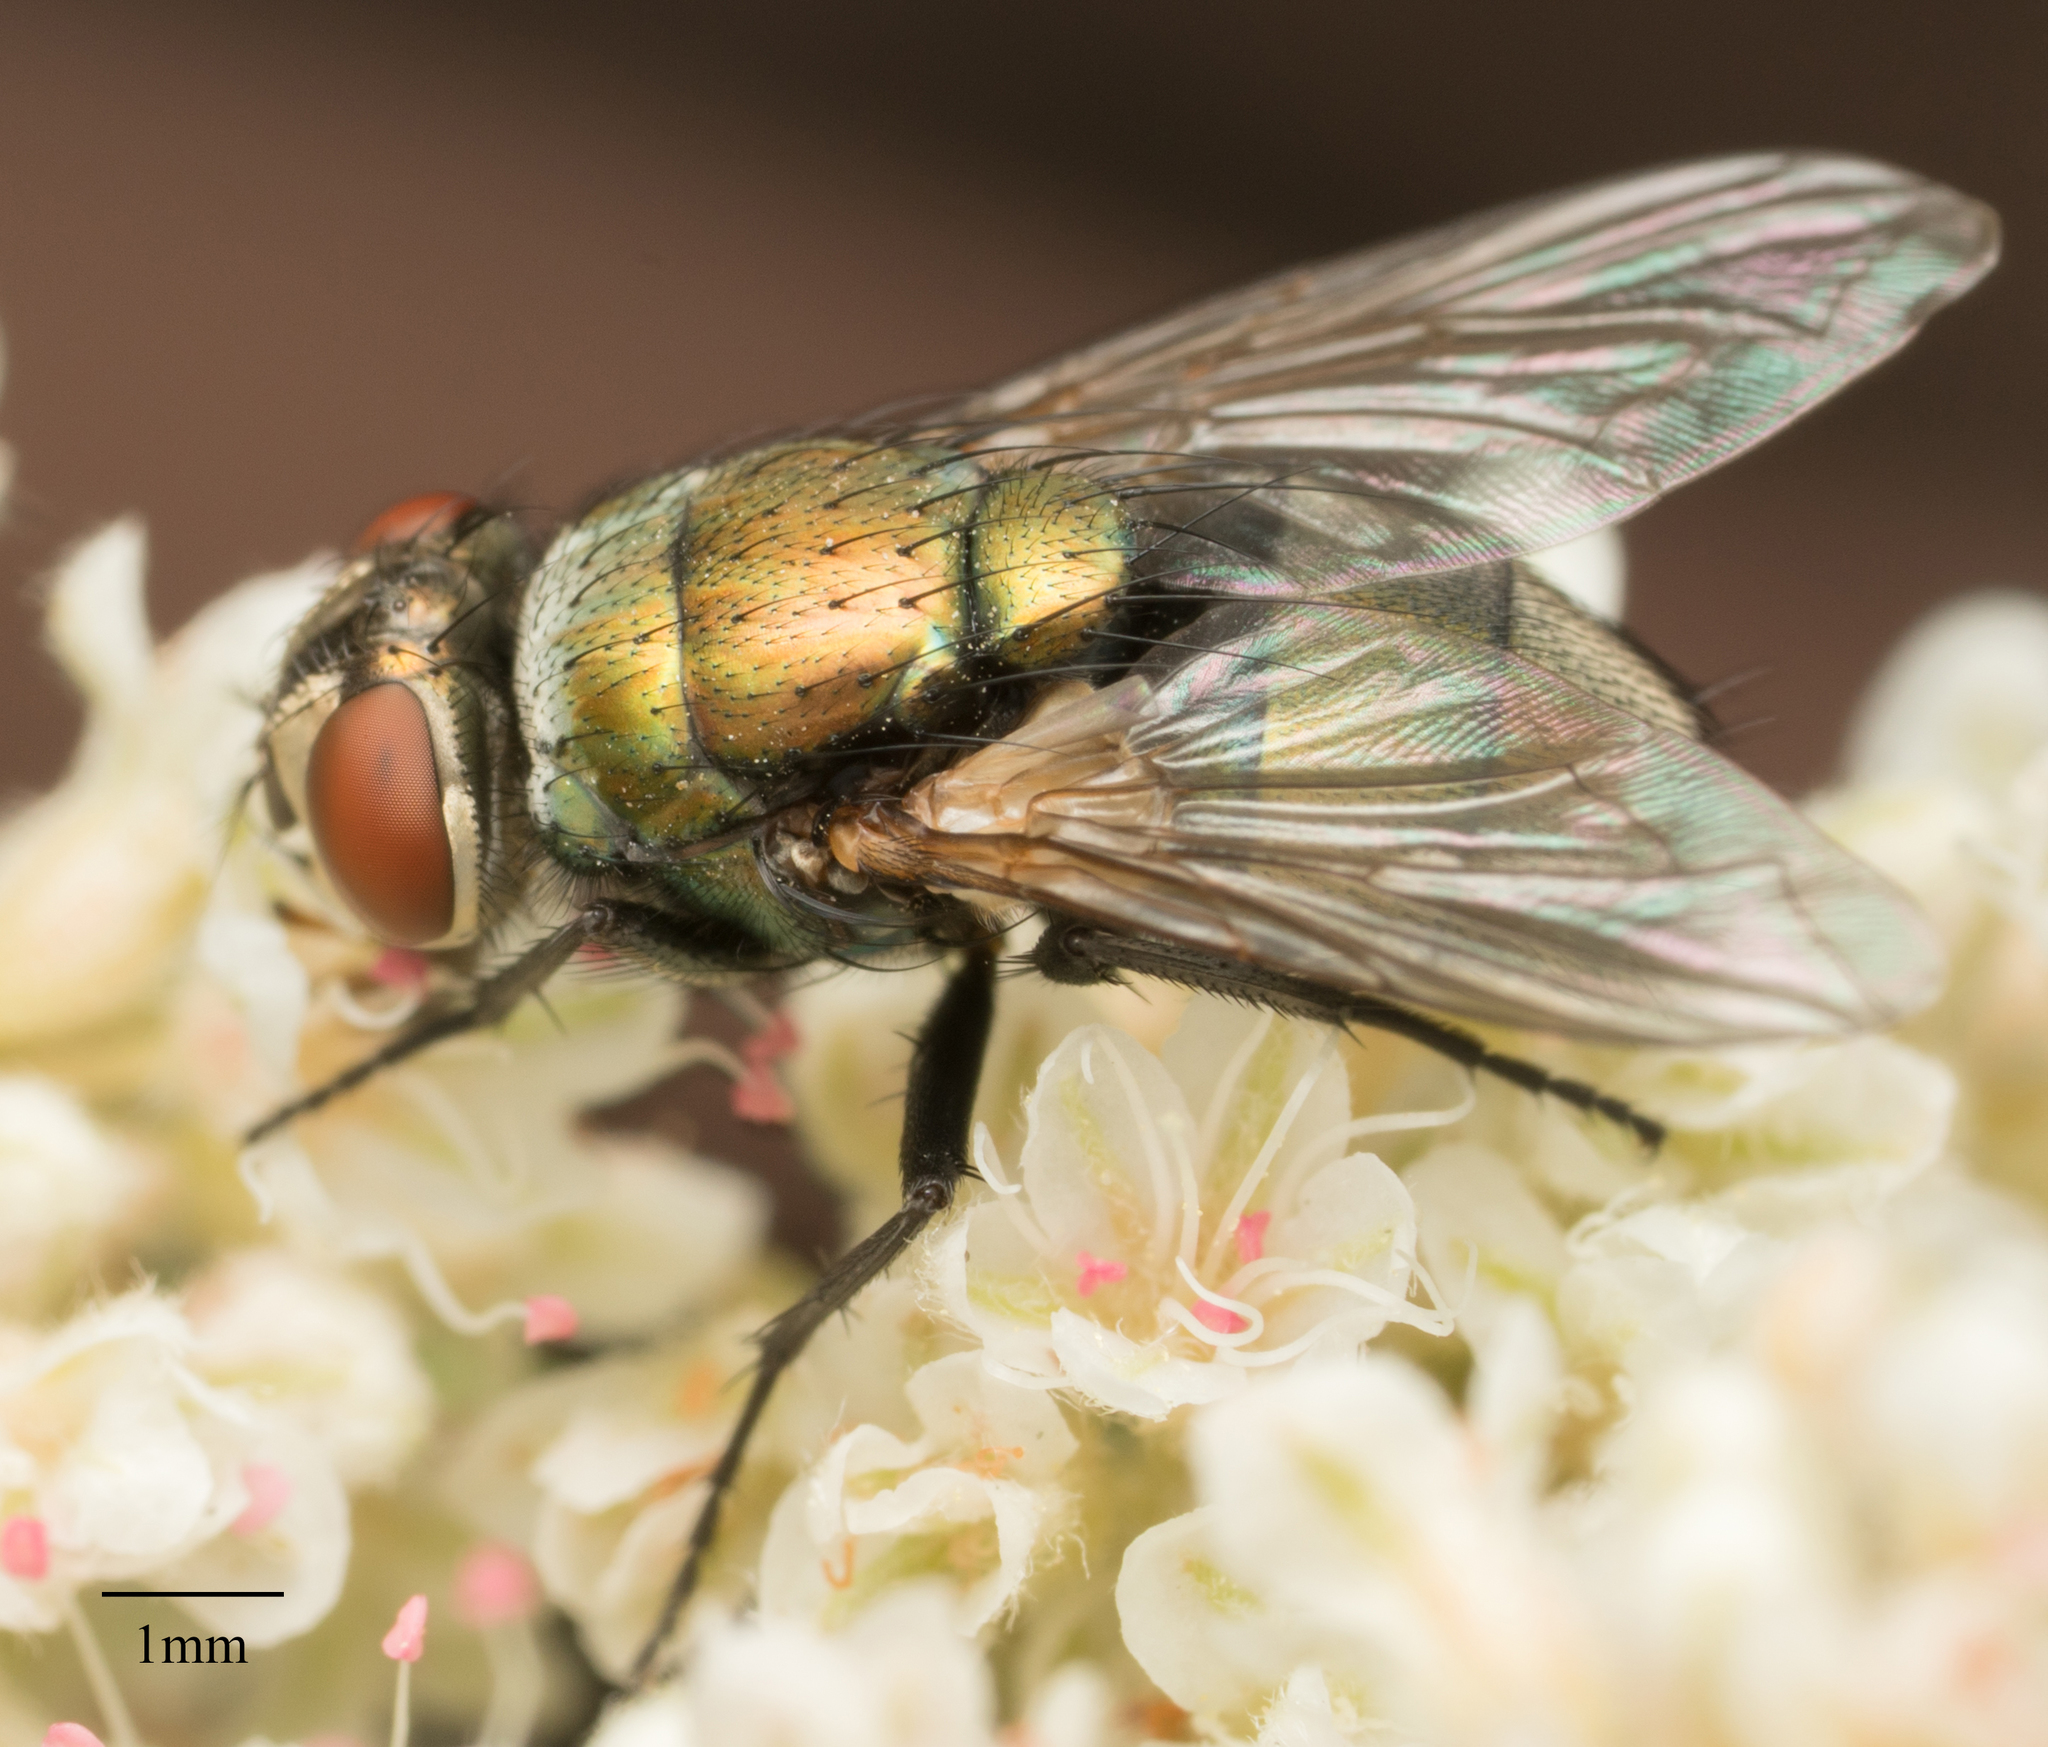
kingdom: Animalia
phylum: Arthropoda
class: Insecta
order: Diptera
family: Calliphoridae
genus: Lucilia
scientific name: Lucilia cuprina
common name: Sheep blow fly
